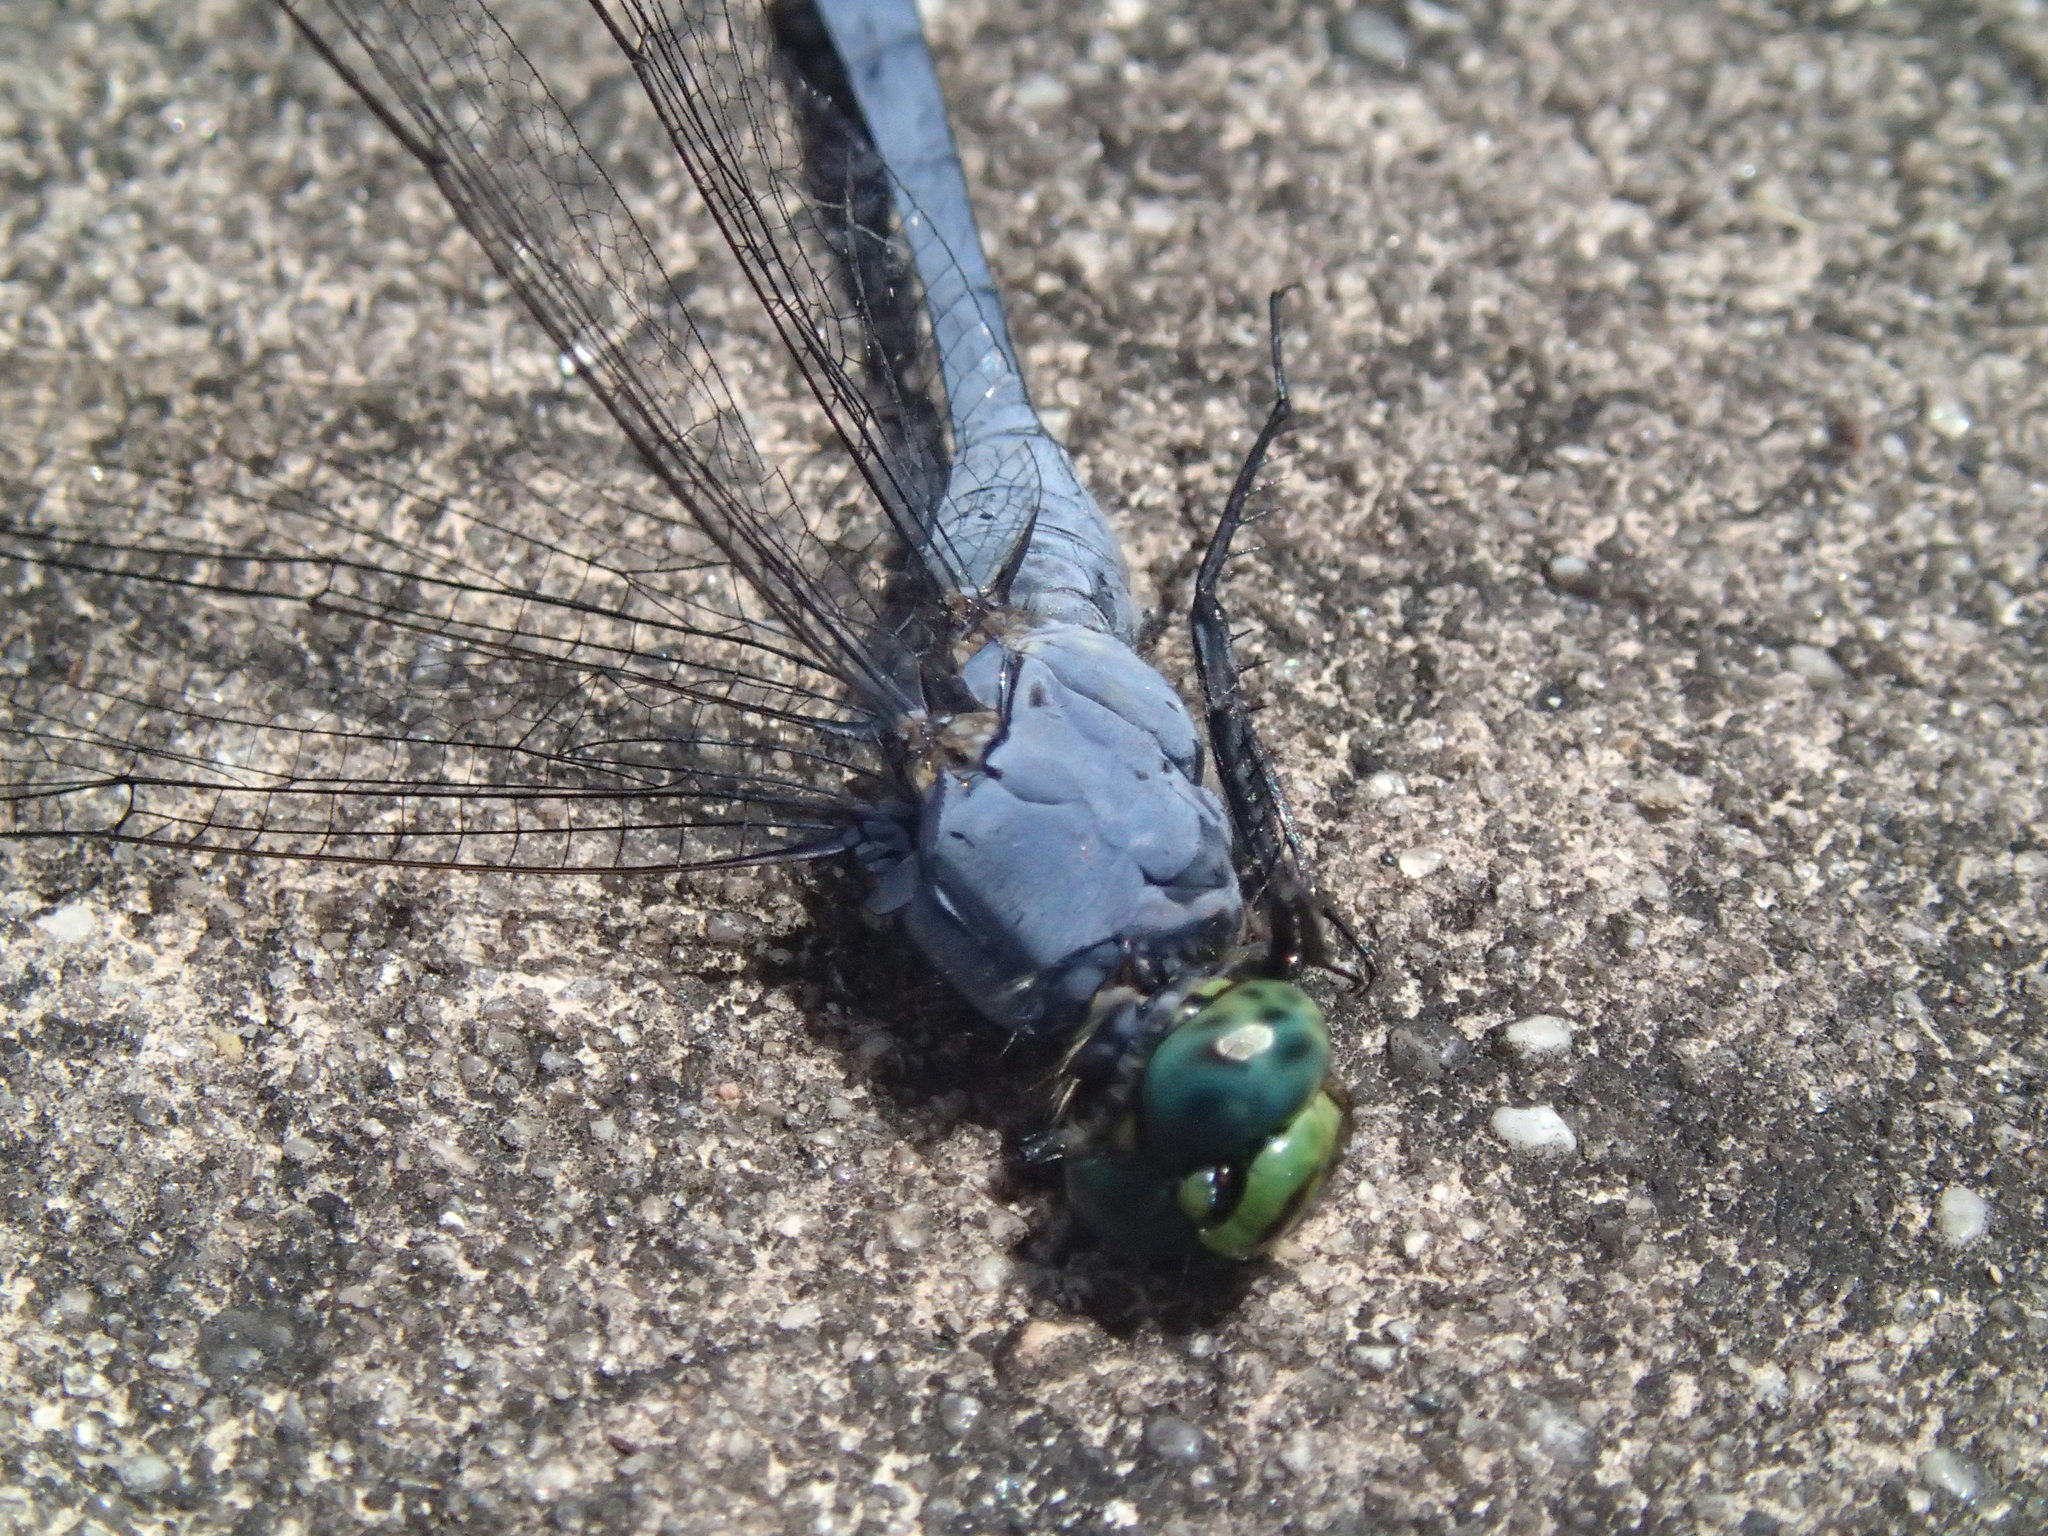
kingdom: Animalia
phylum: Arthropoda
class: Insecta
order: Odonata
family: Libellulidae
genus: Erythemis
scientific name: Erythemis simplicicollis
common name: Eastern pondhawk
